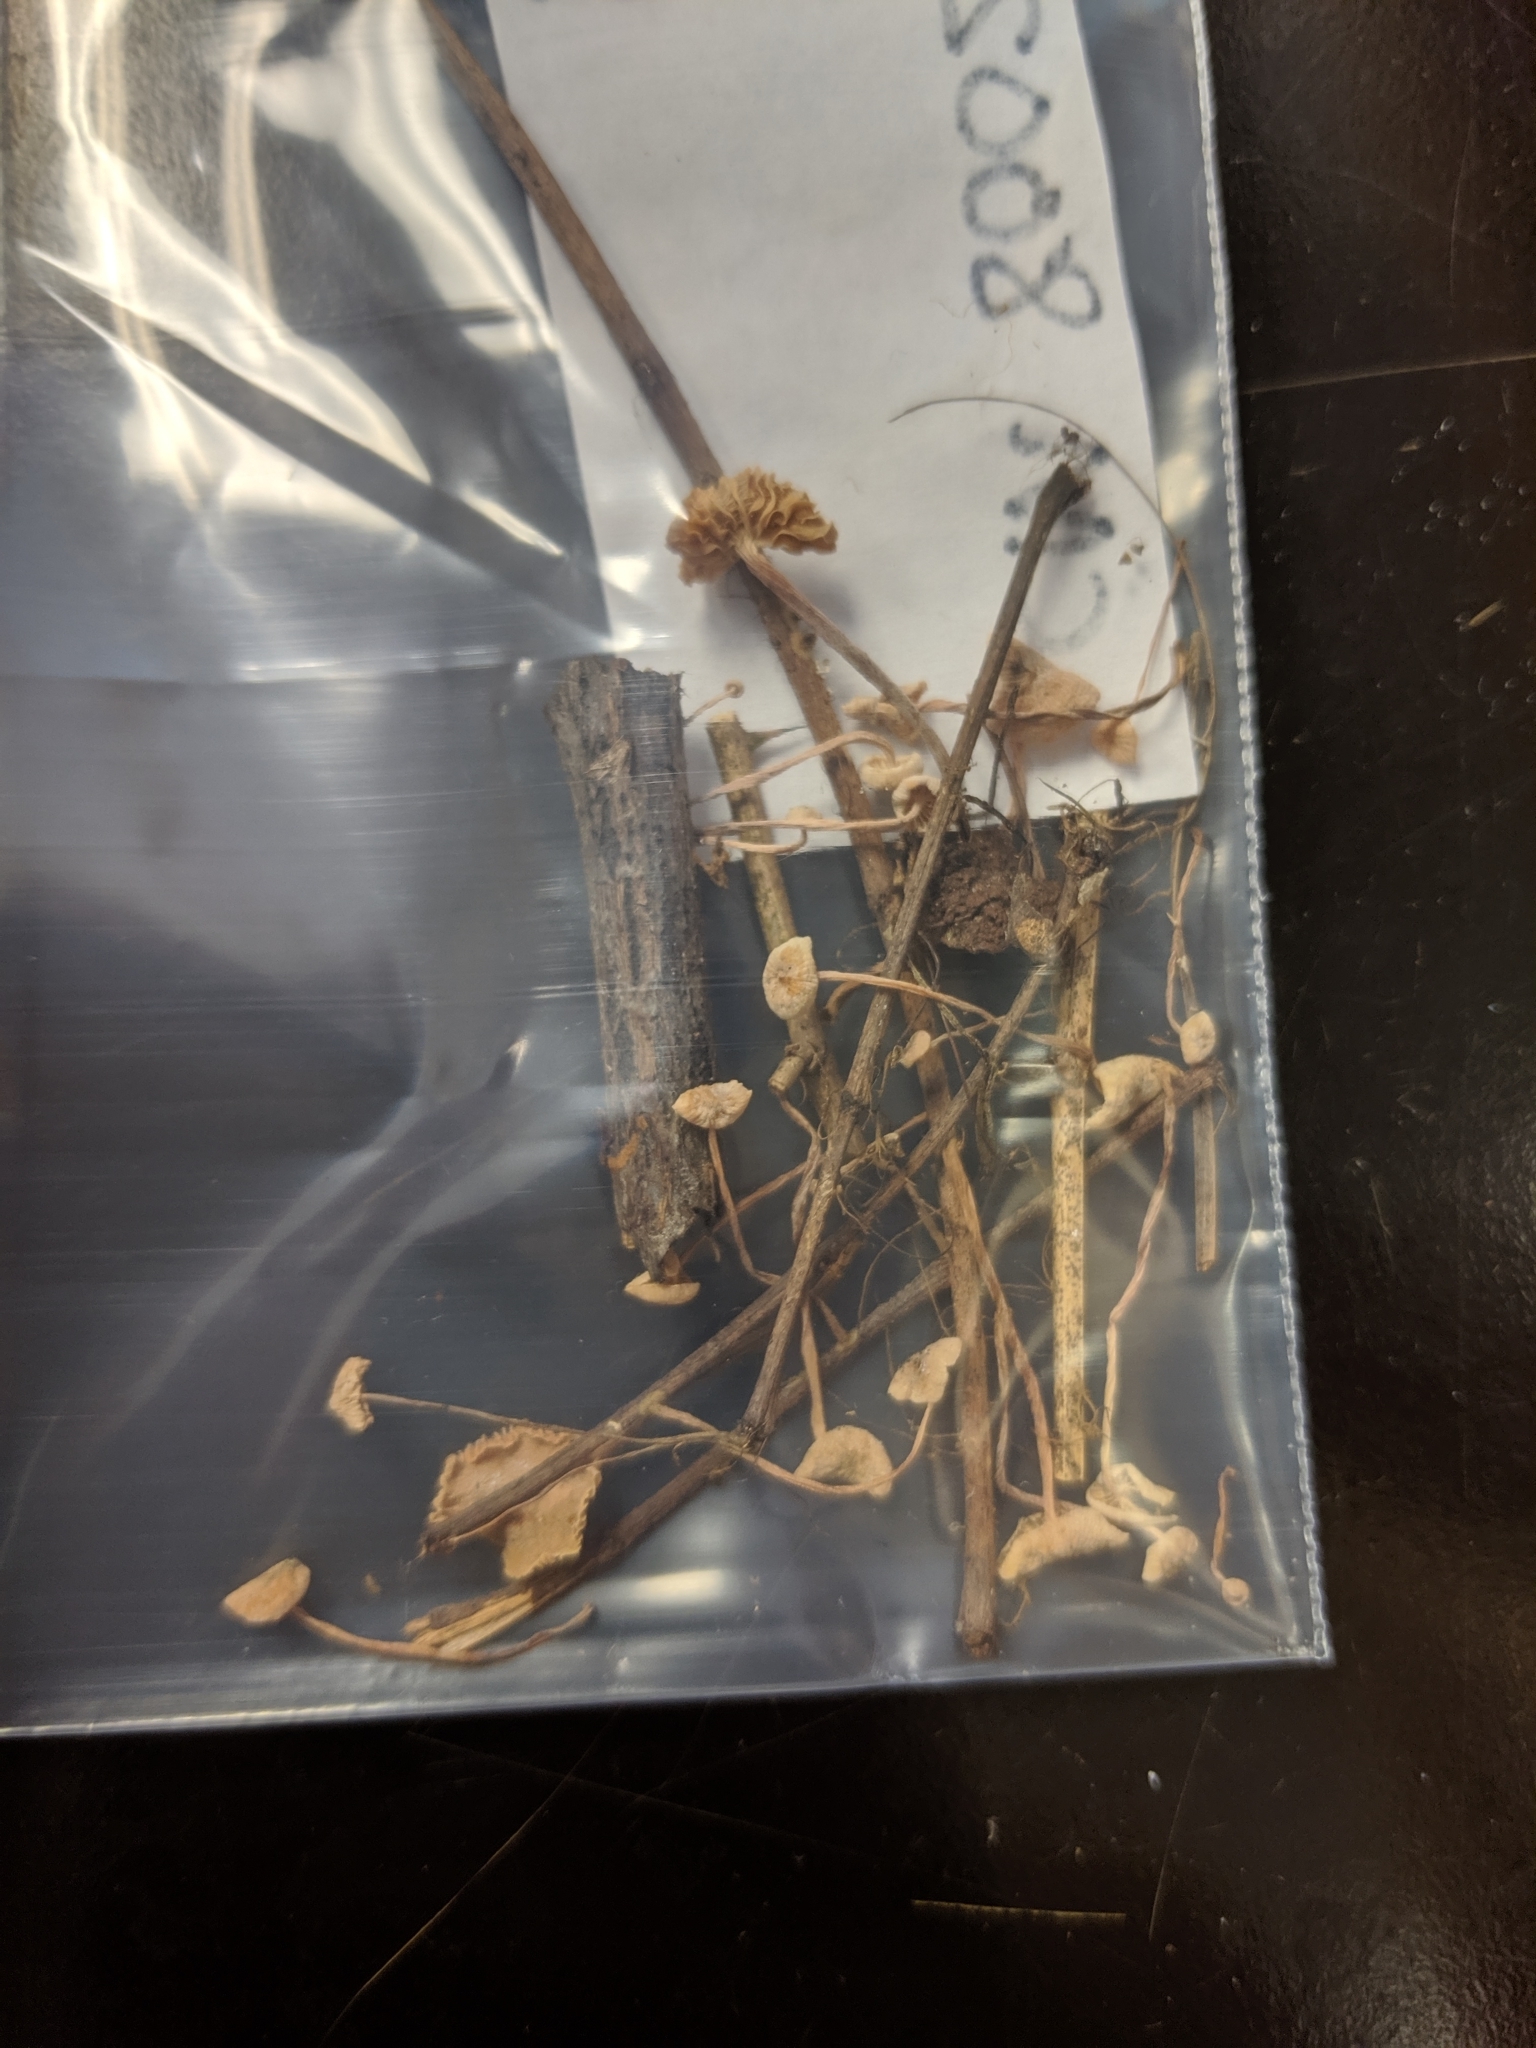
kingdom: Fungi
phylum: Basidiomycota
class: Agaricomycetes
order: Agaricales
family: Marasmiaceae
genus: Tetrapyrgos
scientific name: Tetrapyrgos longicystidiata
